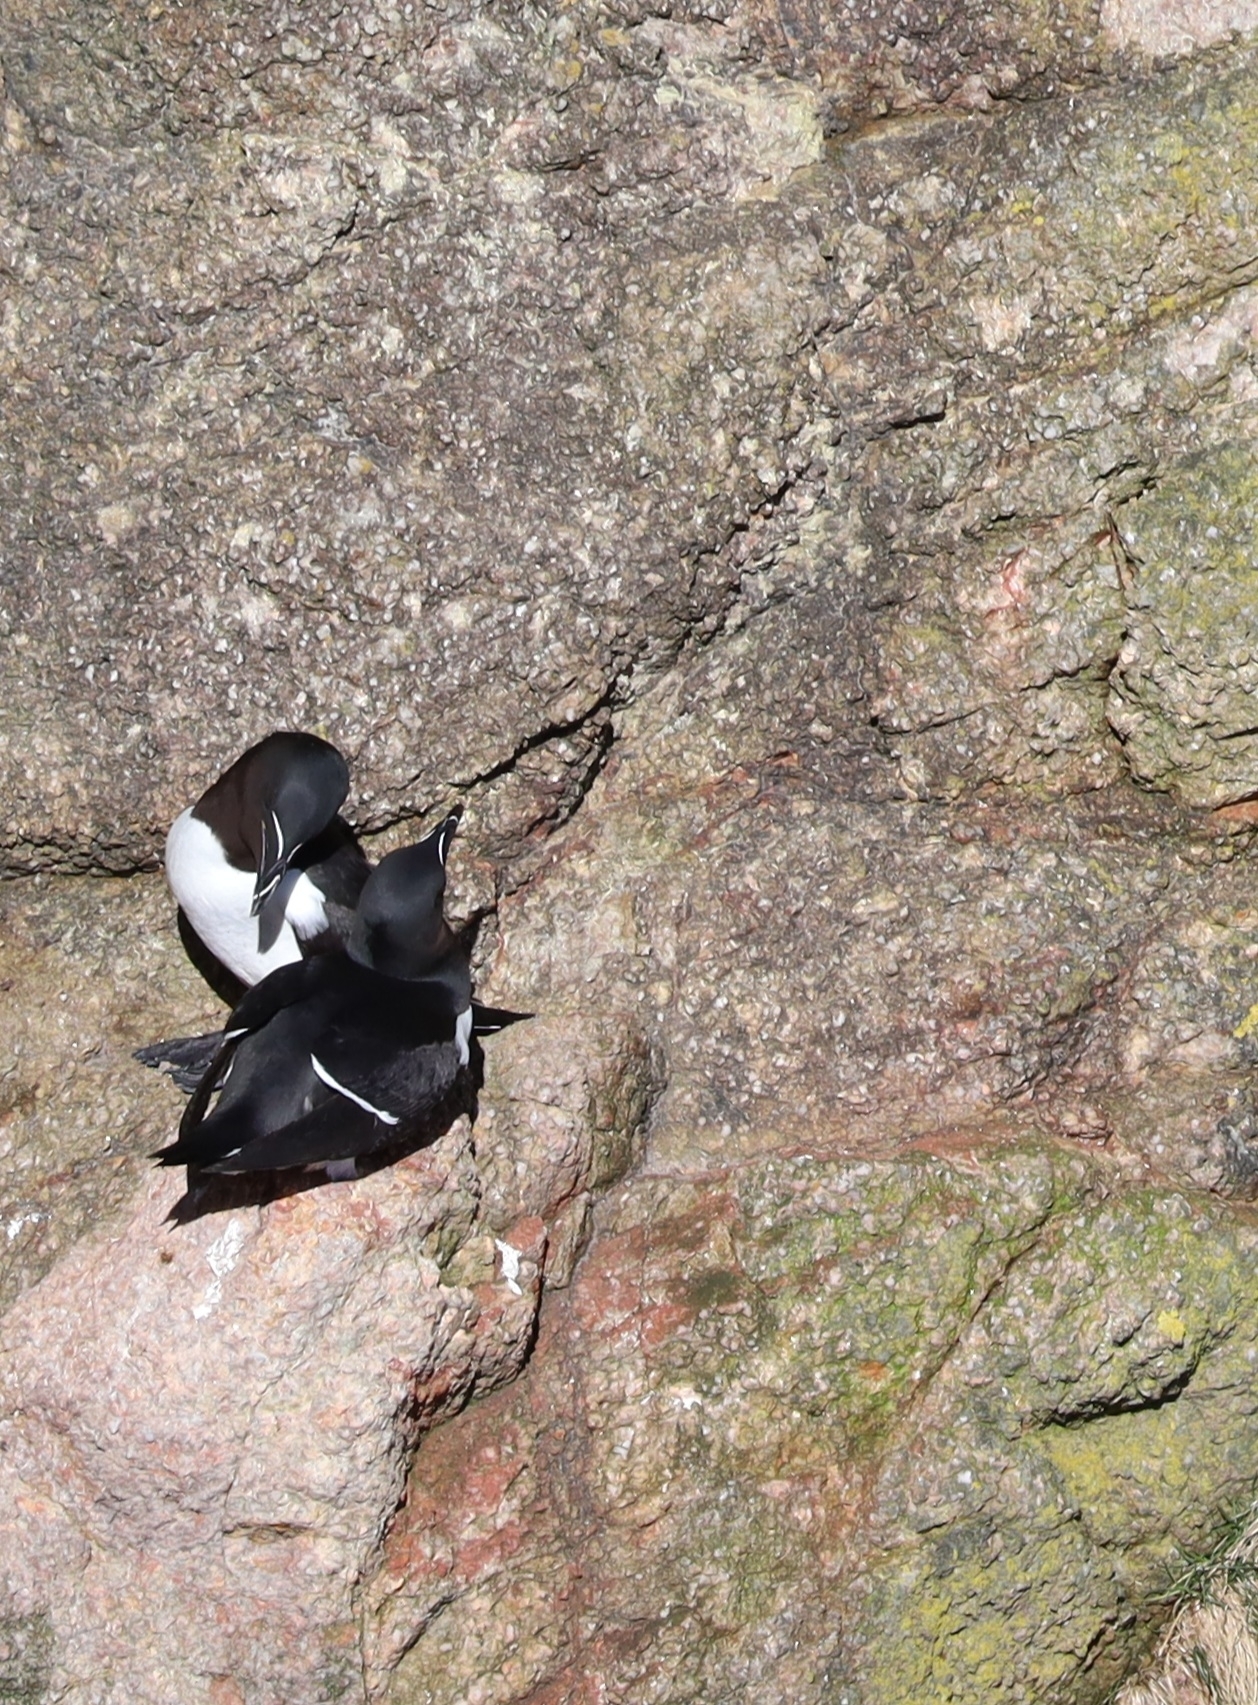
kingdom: Animalia
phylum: Chordata
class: Aves
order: Charadriiformes
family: Alcidae
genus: Alca
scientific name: Alca torda
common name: Razorbill
